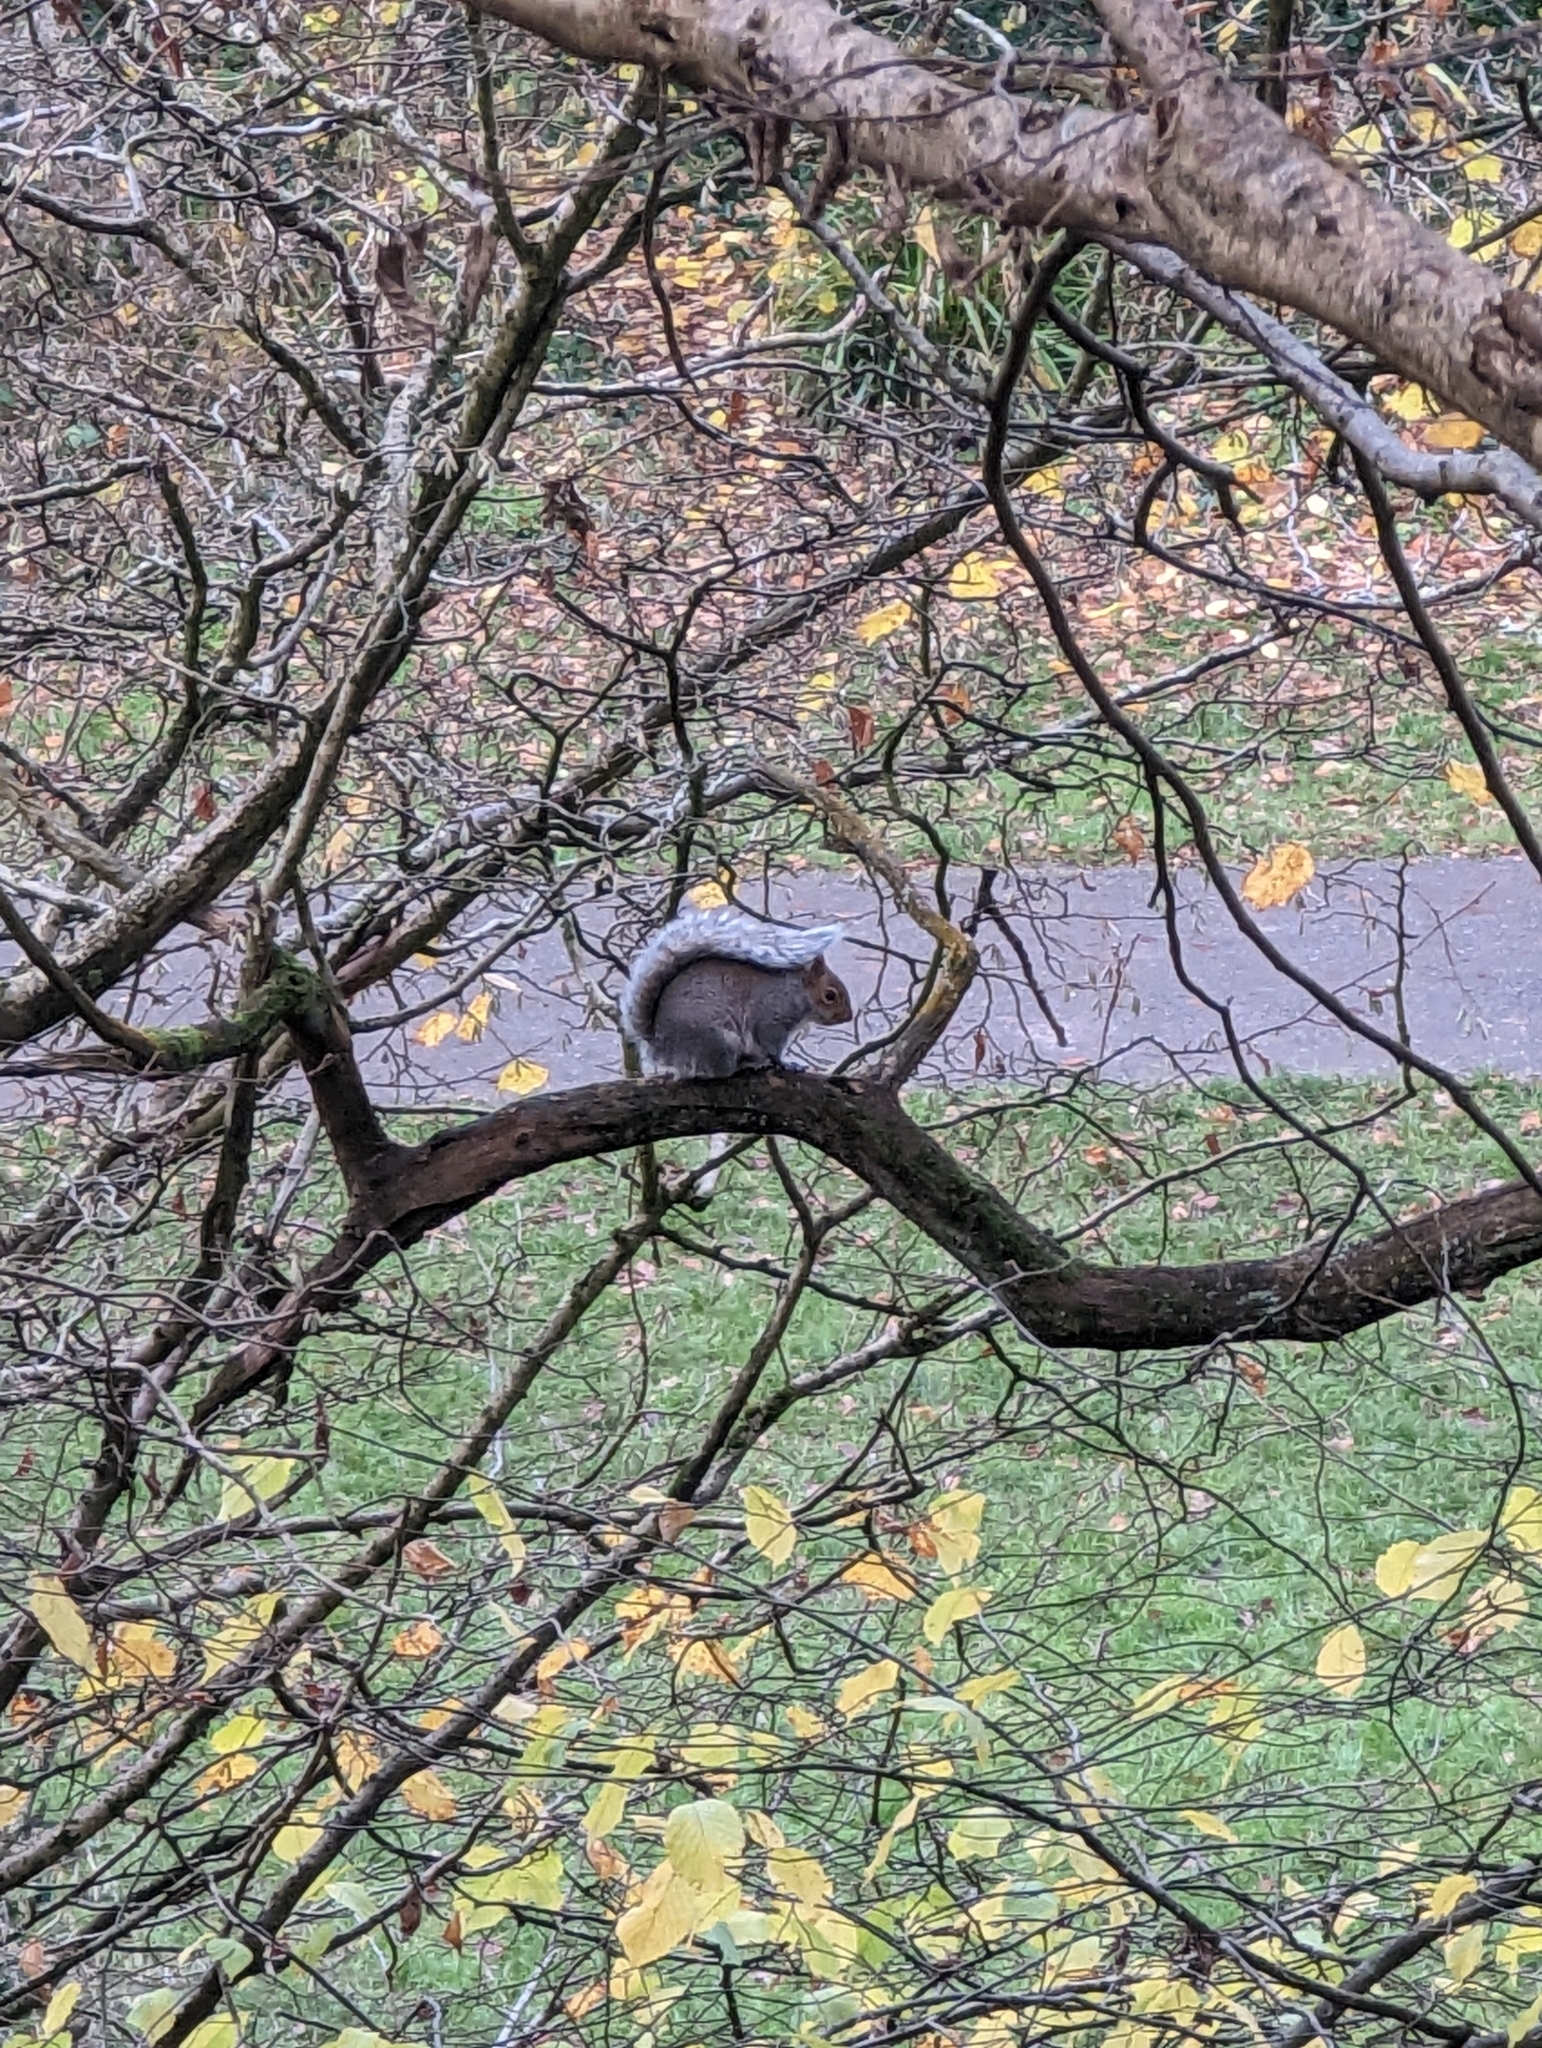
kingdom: Animalia
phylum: Chordata
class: Mammalia
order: Rodentia
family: Sciuridae
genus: Sciurus
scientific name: Sciurus carolinensis
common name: Eastern gray squirrel
